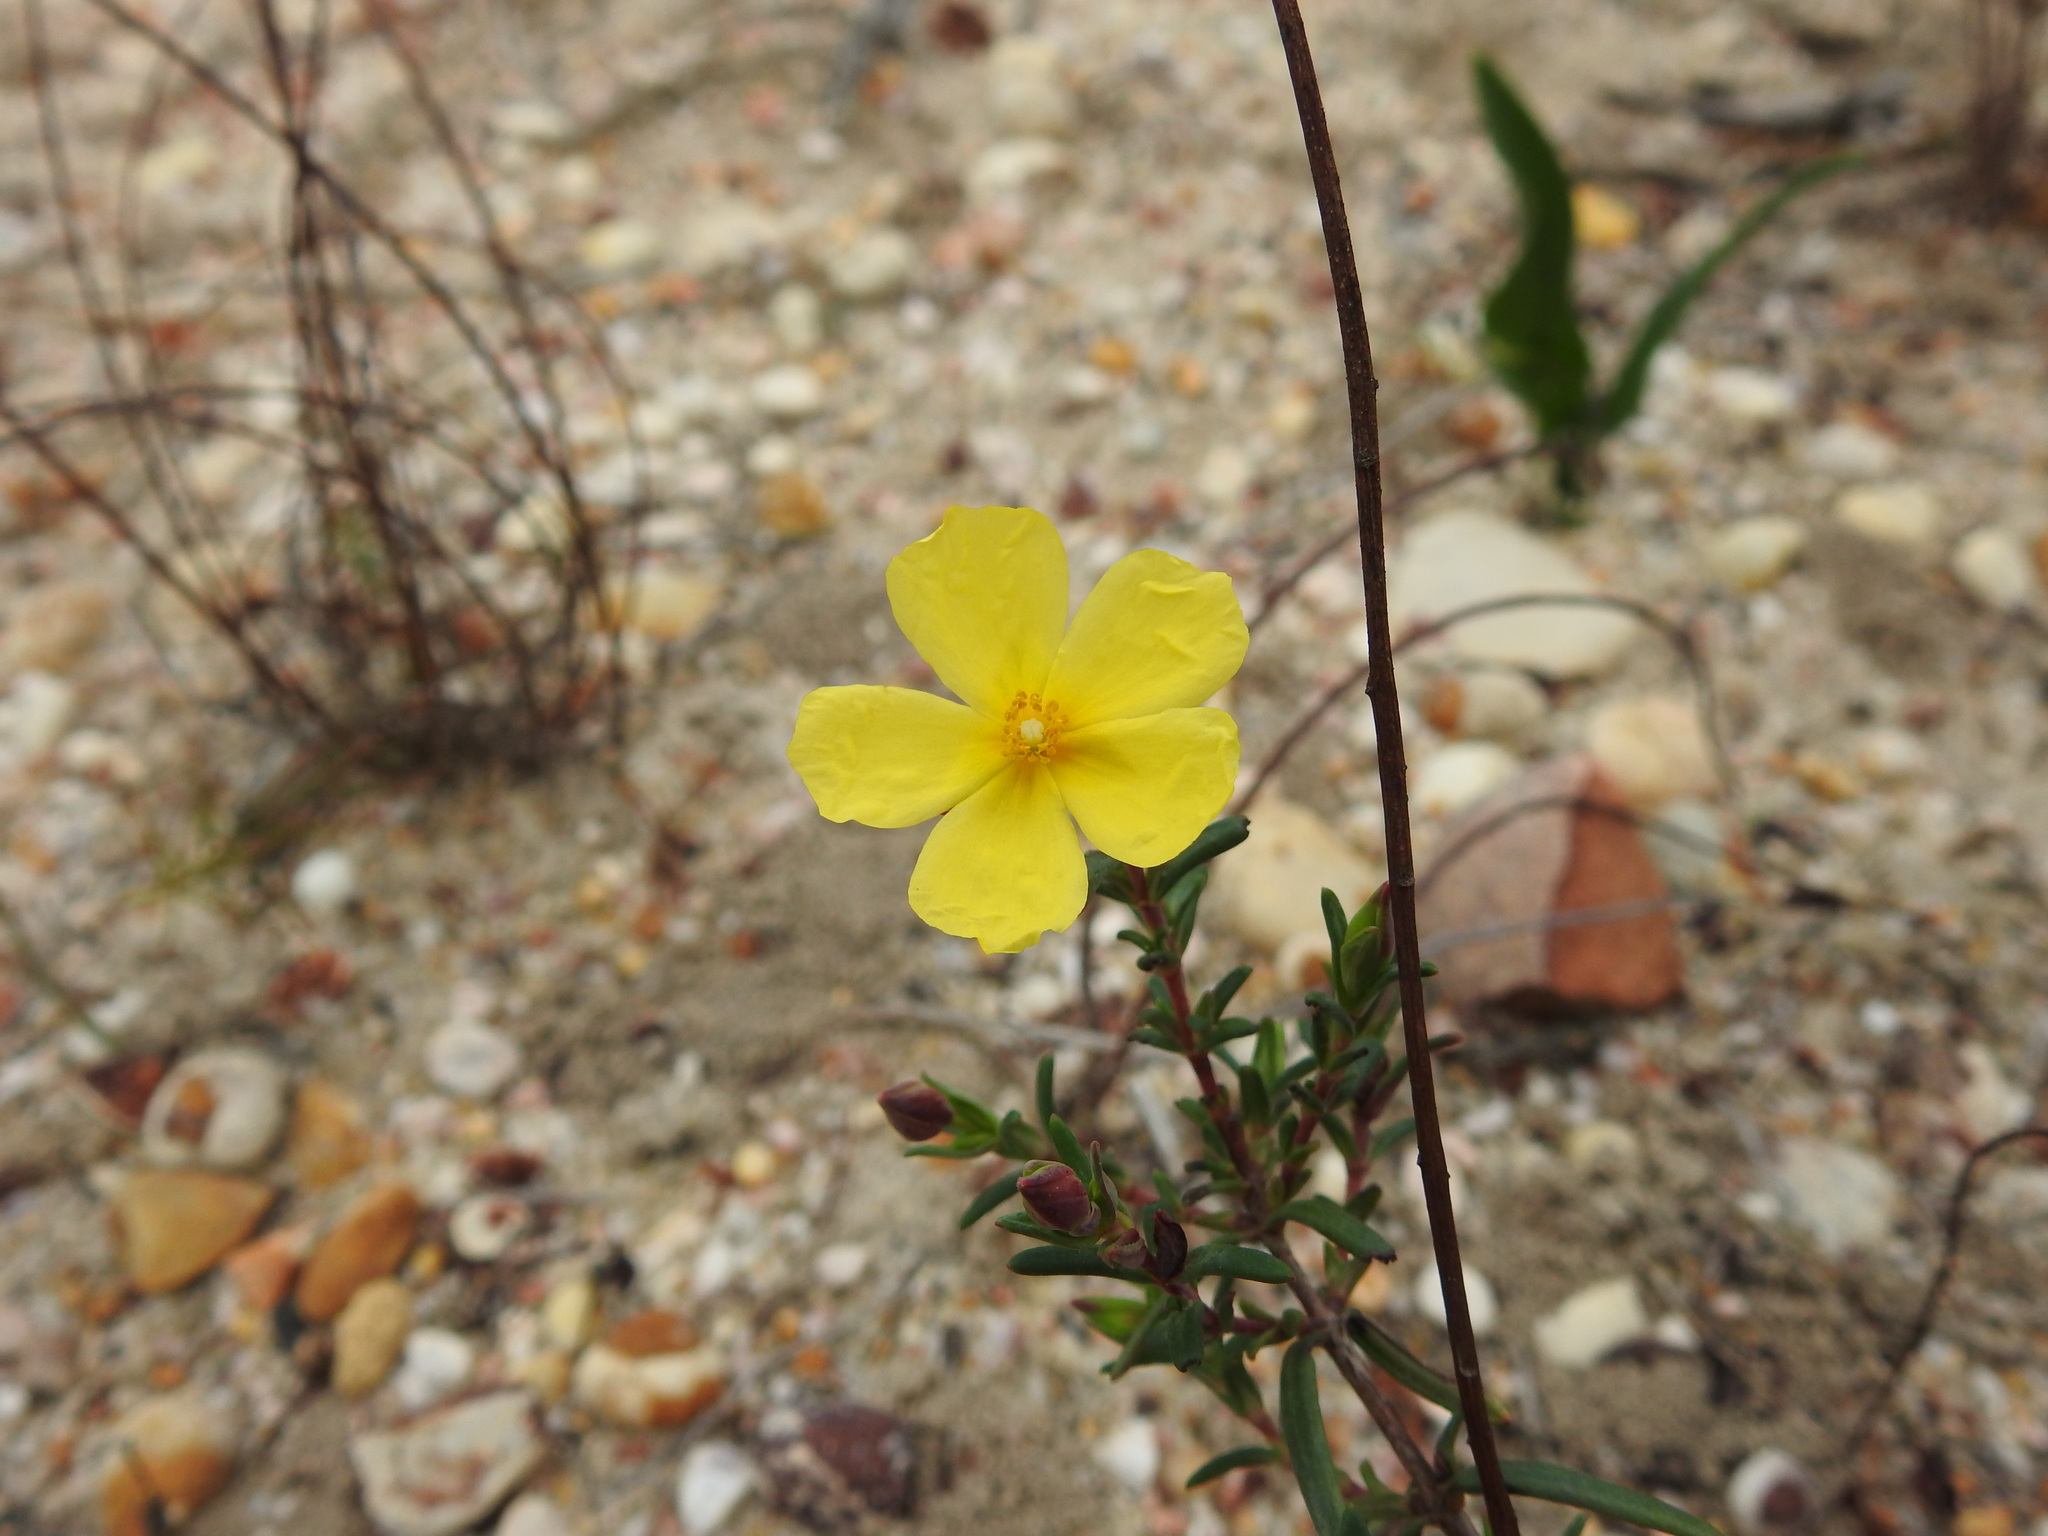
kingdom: Plantae
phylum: Tracheophyta
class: Magnoliopsida
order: Malvales
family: Cistaceae
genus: Halimium
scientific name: Halimium calycinum
